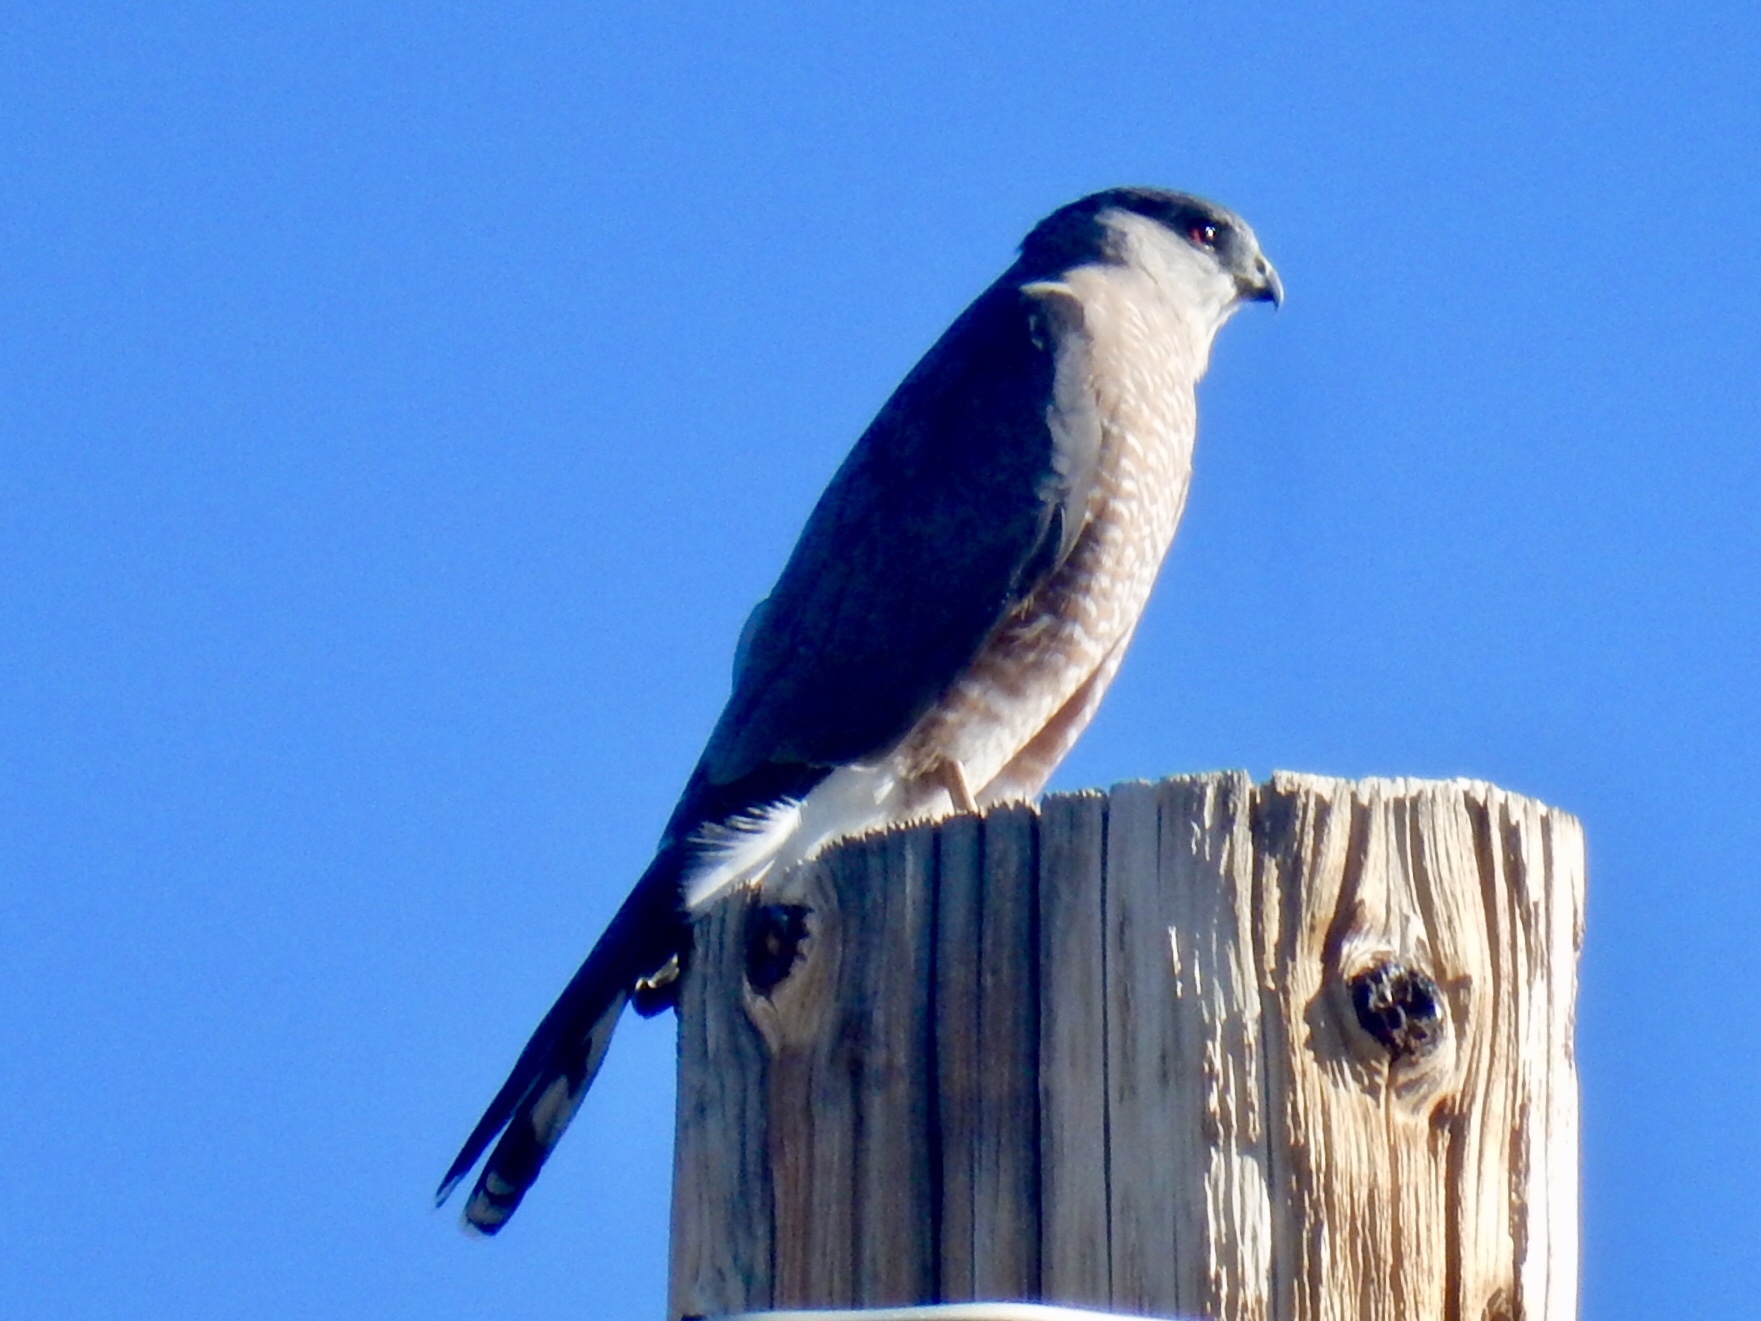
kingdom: Animalia
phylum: Chordata
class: Aves
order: Accipitriformes
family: Accipitridae
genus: Accipiter
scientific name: Accipiter cooperii
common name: Cooper's hawk
